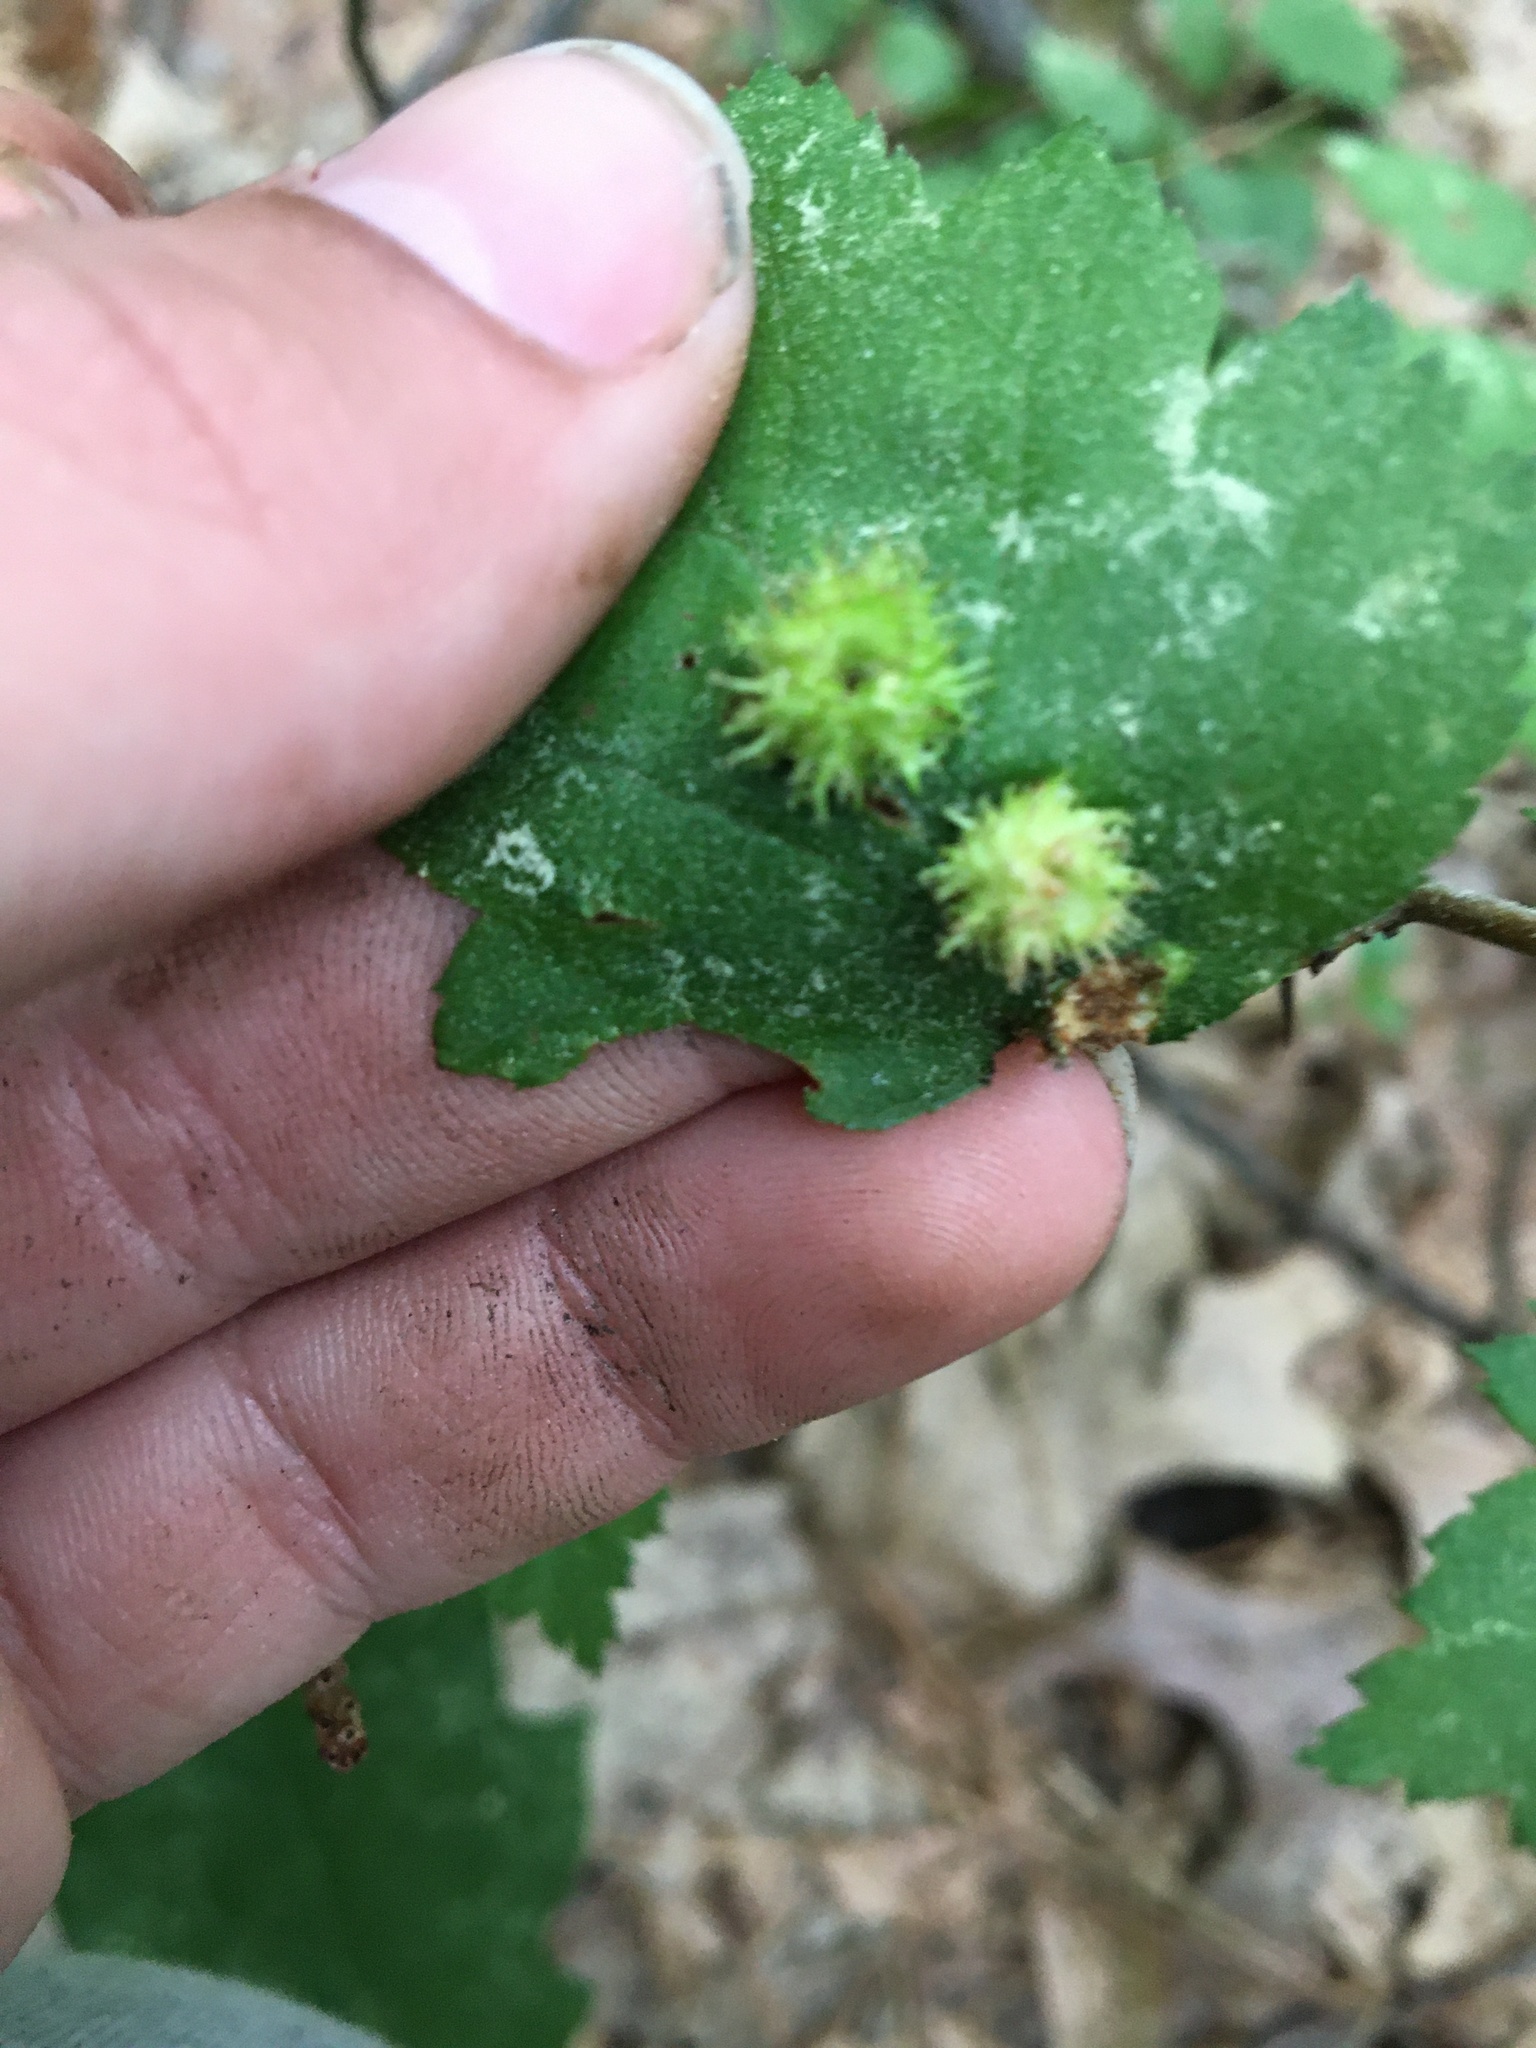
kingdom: Animalia
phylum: Arthropoda
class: Insecta
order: Diptera
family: Cecidomyiidae
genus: Blaesodiplosis
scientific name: Blaesodiplosis crataegibedeguar
